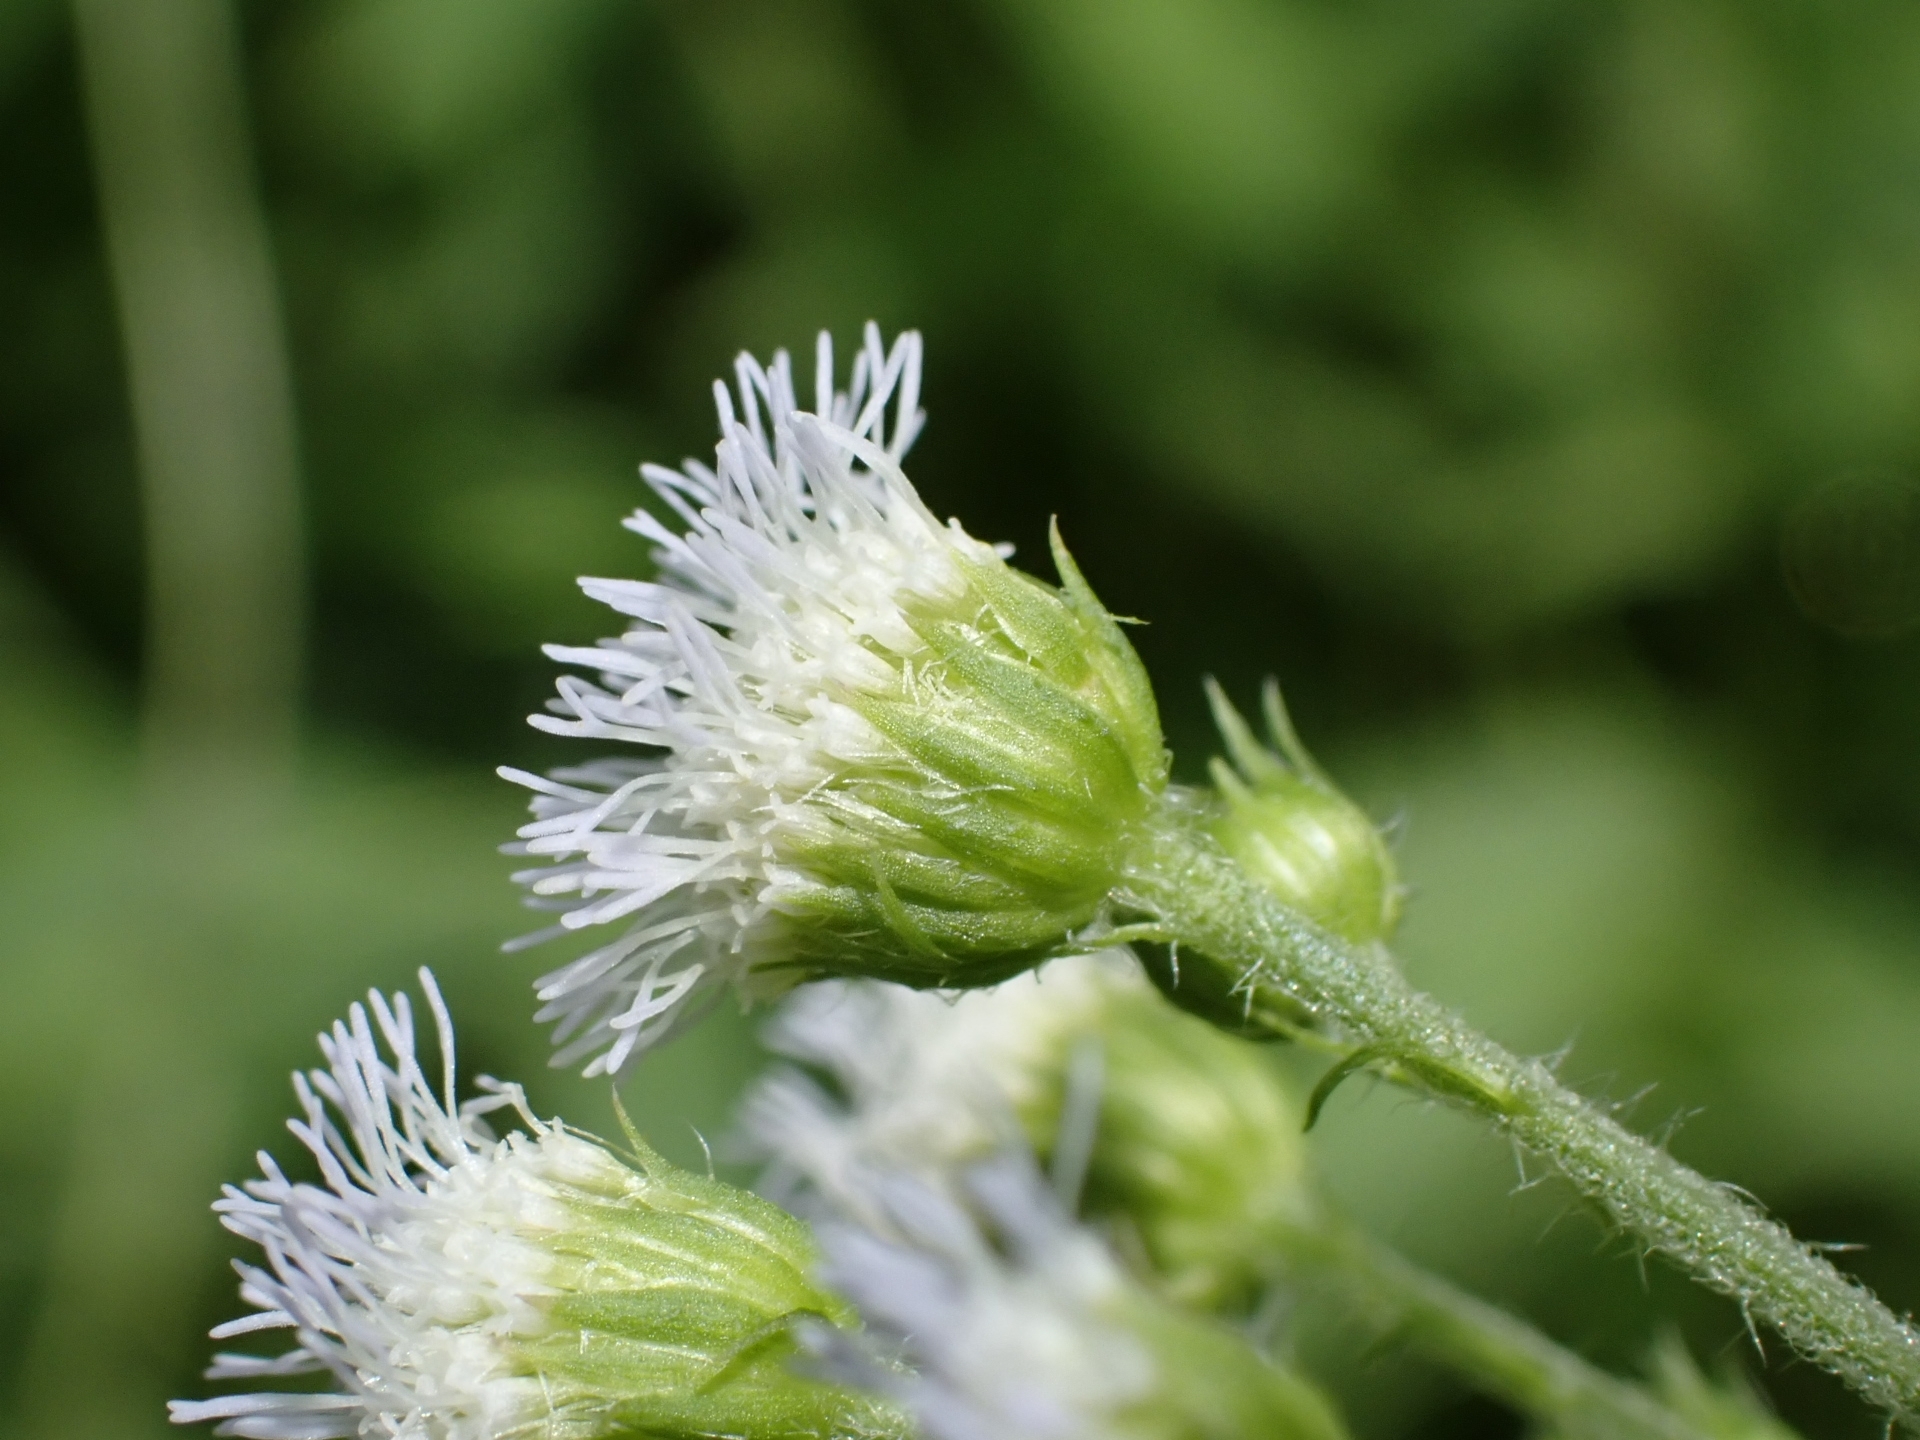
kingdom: Plantae
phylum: Tracheophyta
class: Magnoliopsida
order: Asterales
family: Asteraceae
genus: Ageratum
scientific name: Ageratum conyzoides
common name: Tropical whiteweed
